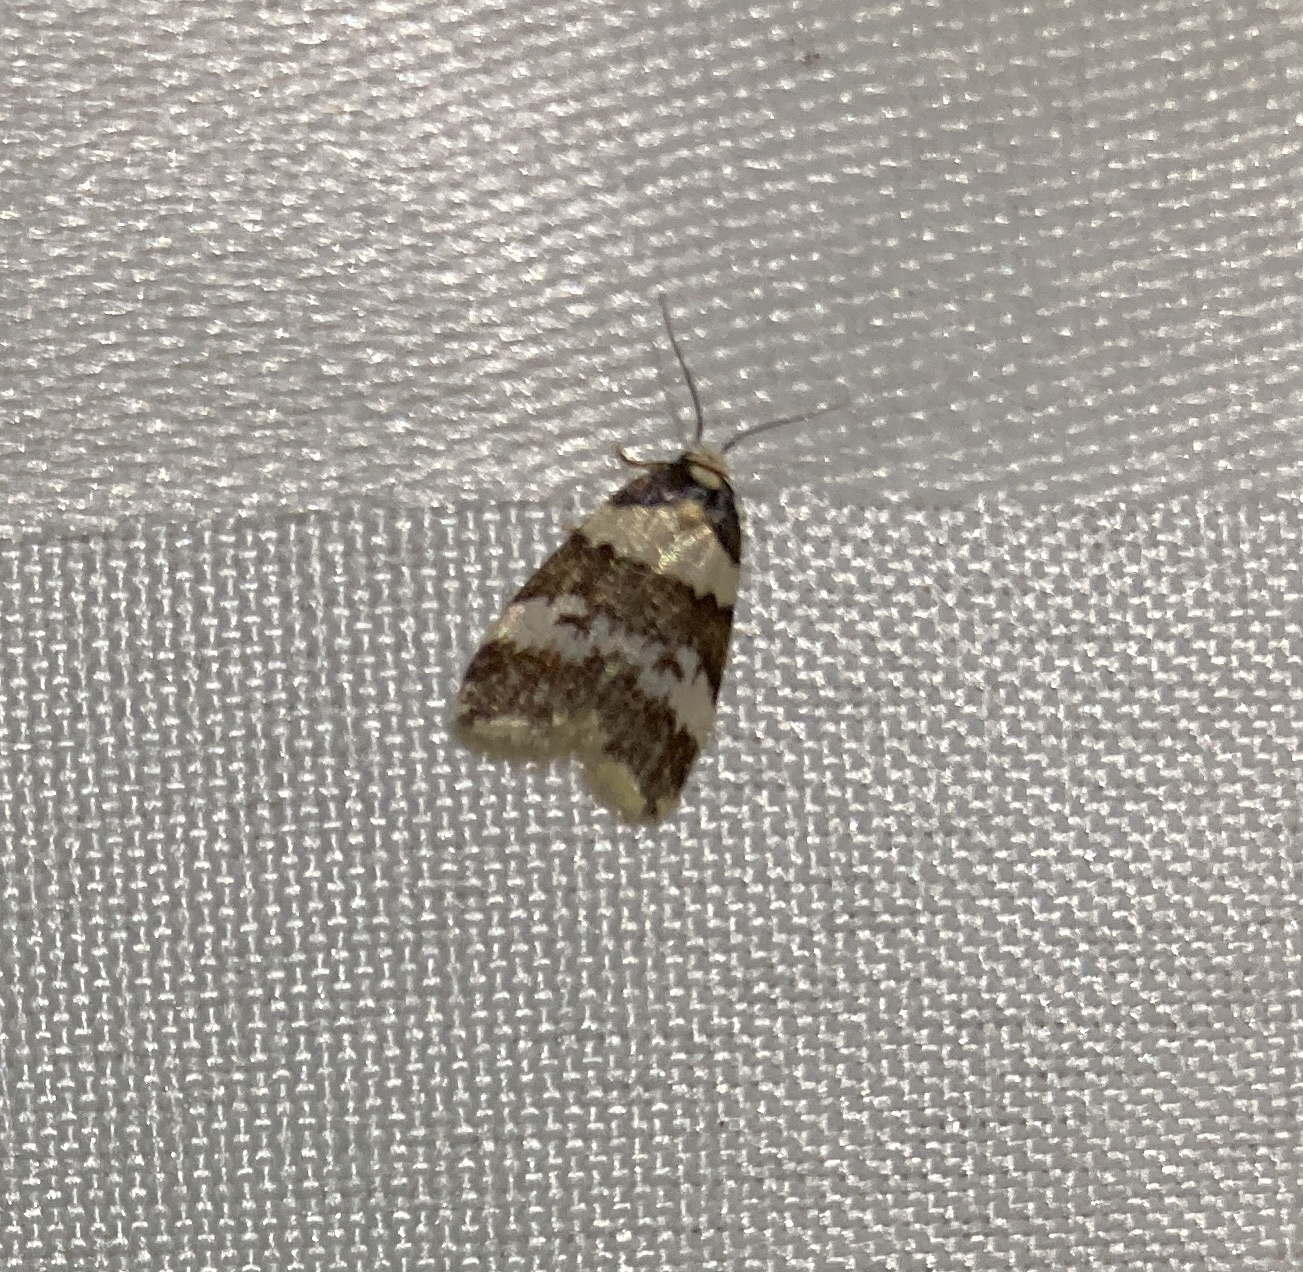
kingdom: Animalia
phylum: Arthropoda
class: Insecta
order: Lepidoptera
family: Erebidae
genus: Halone
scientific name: Halone sejuncta
